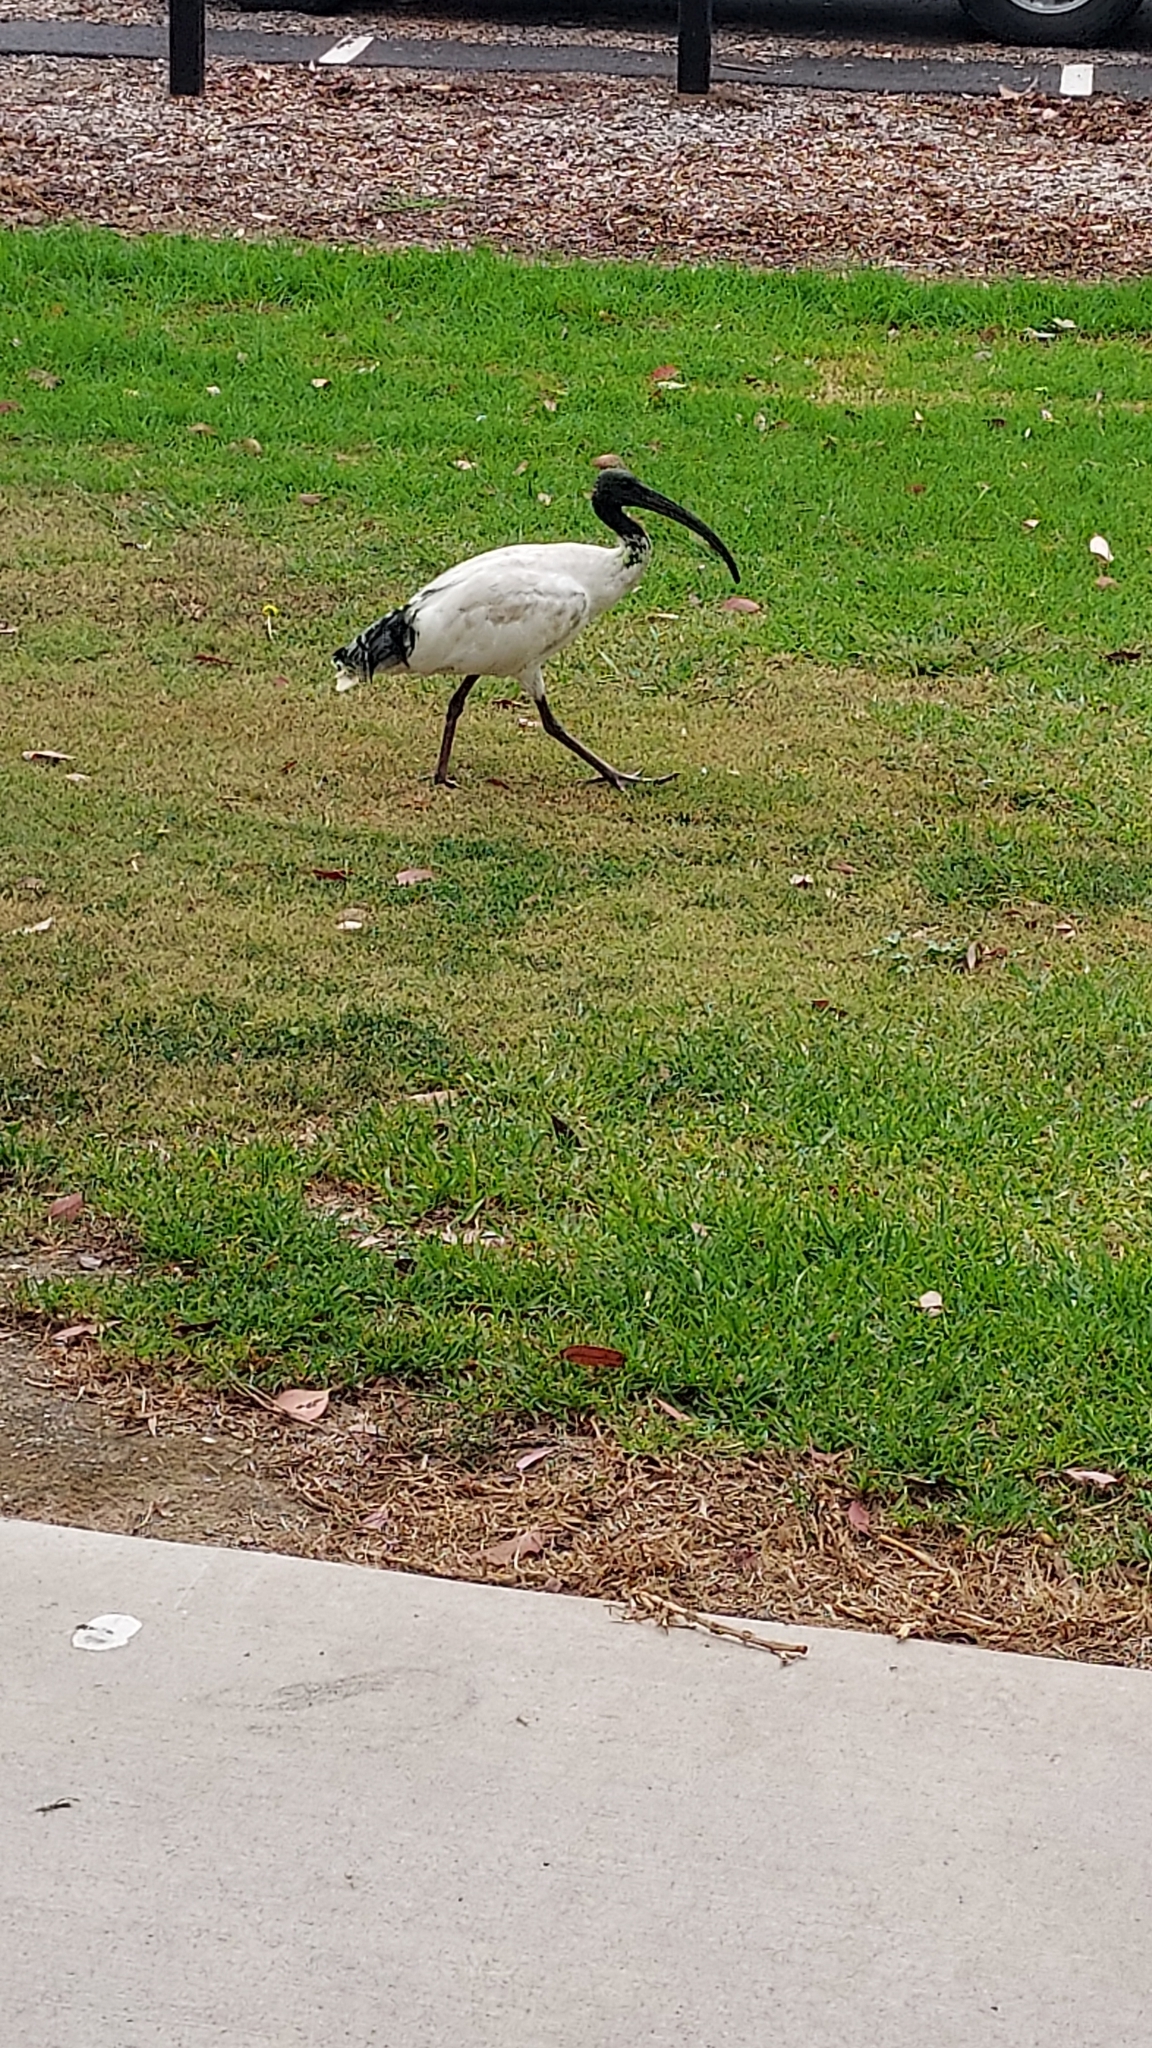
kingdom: Animalia
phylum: Chordata
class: Aves
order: Pelecaniformes
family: Threskiornithidae
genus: Threskiornis
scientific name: Threskiornis molucca
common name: Australian white ibis
